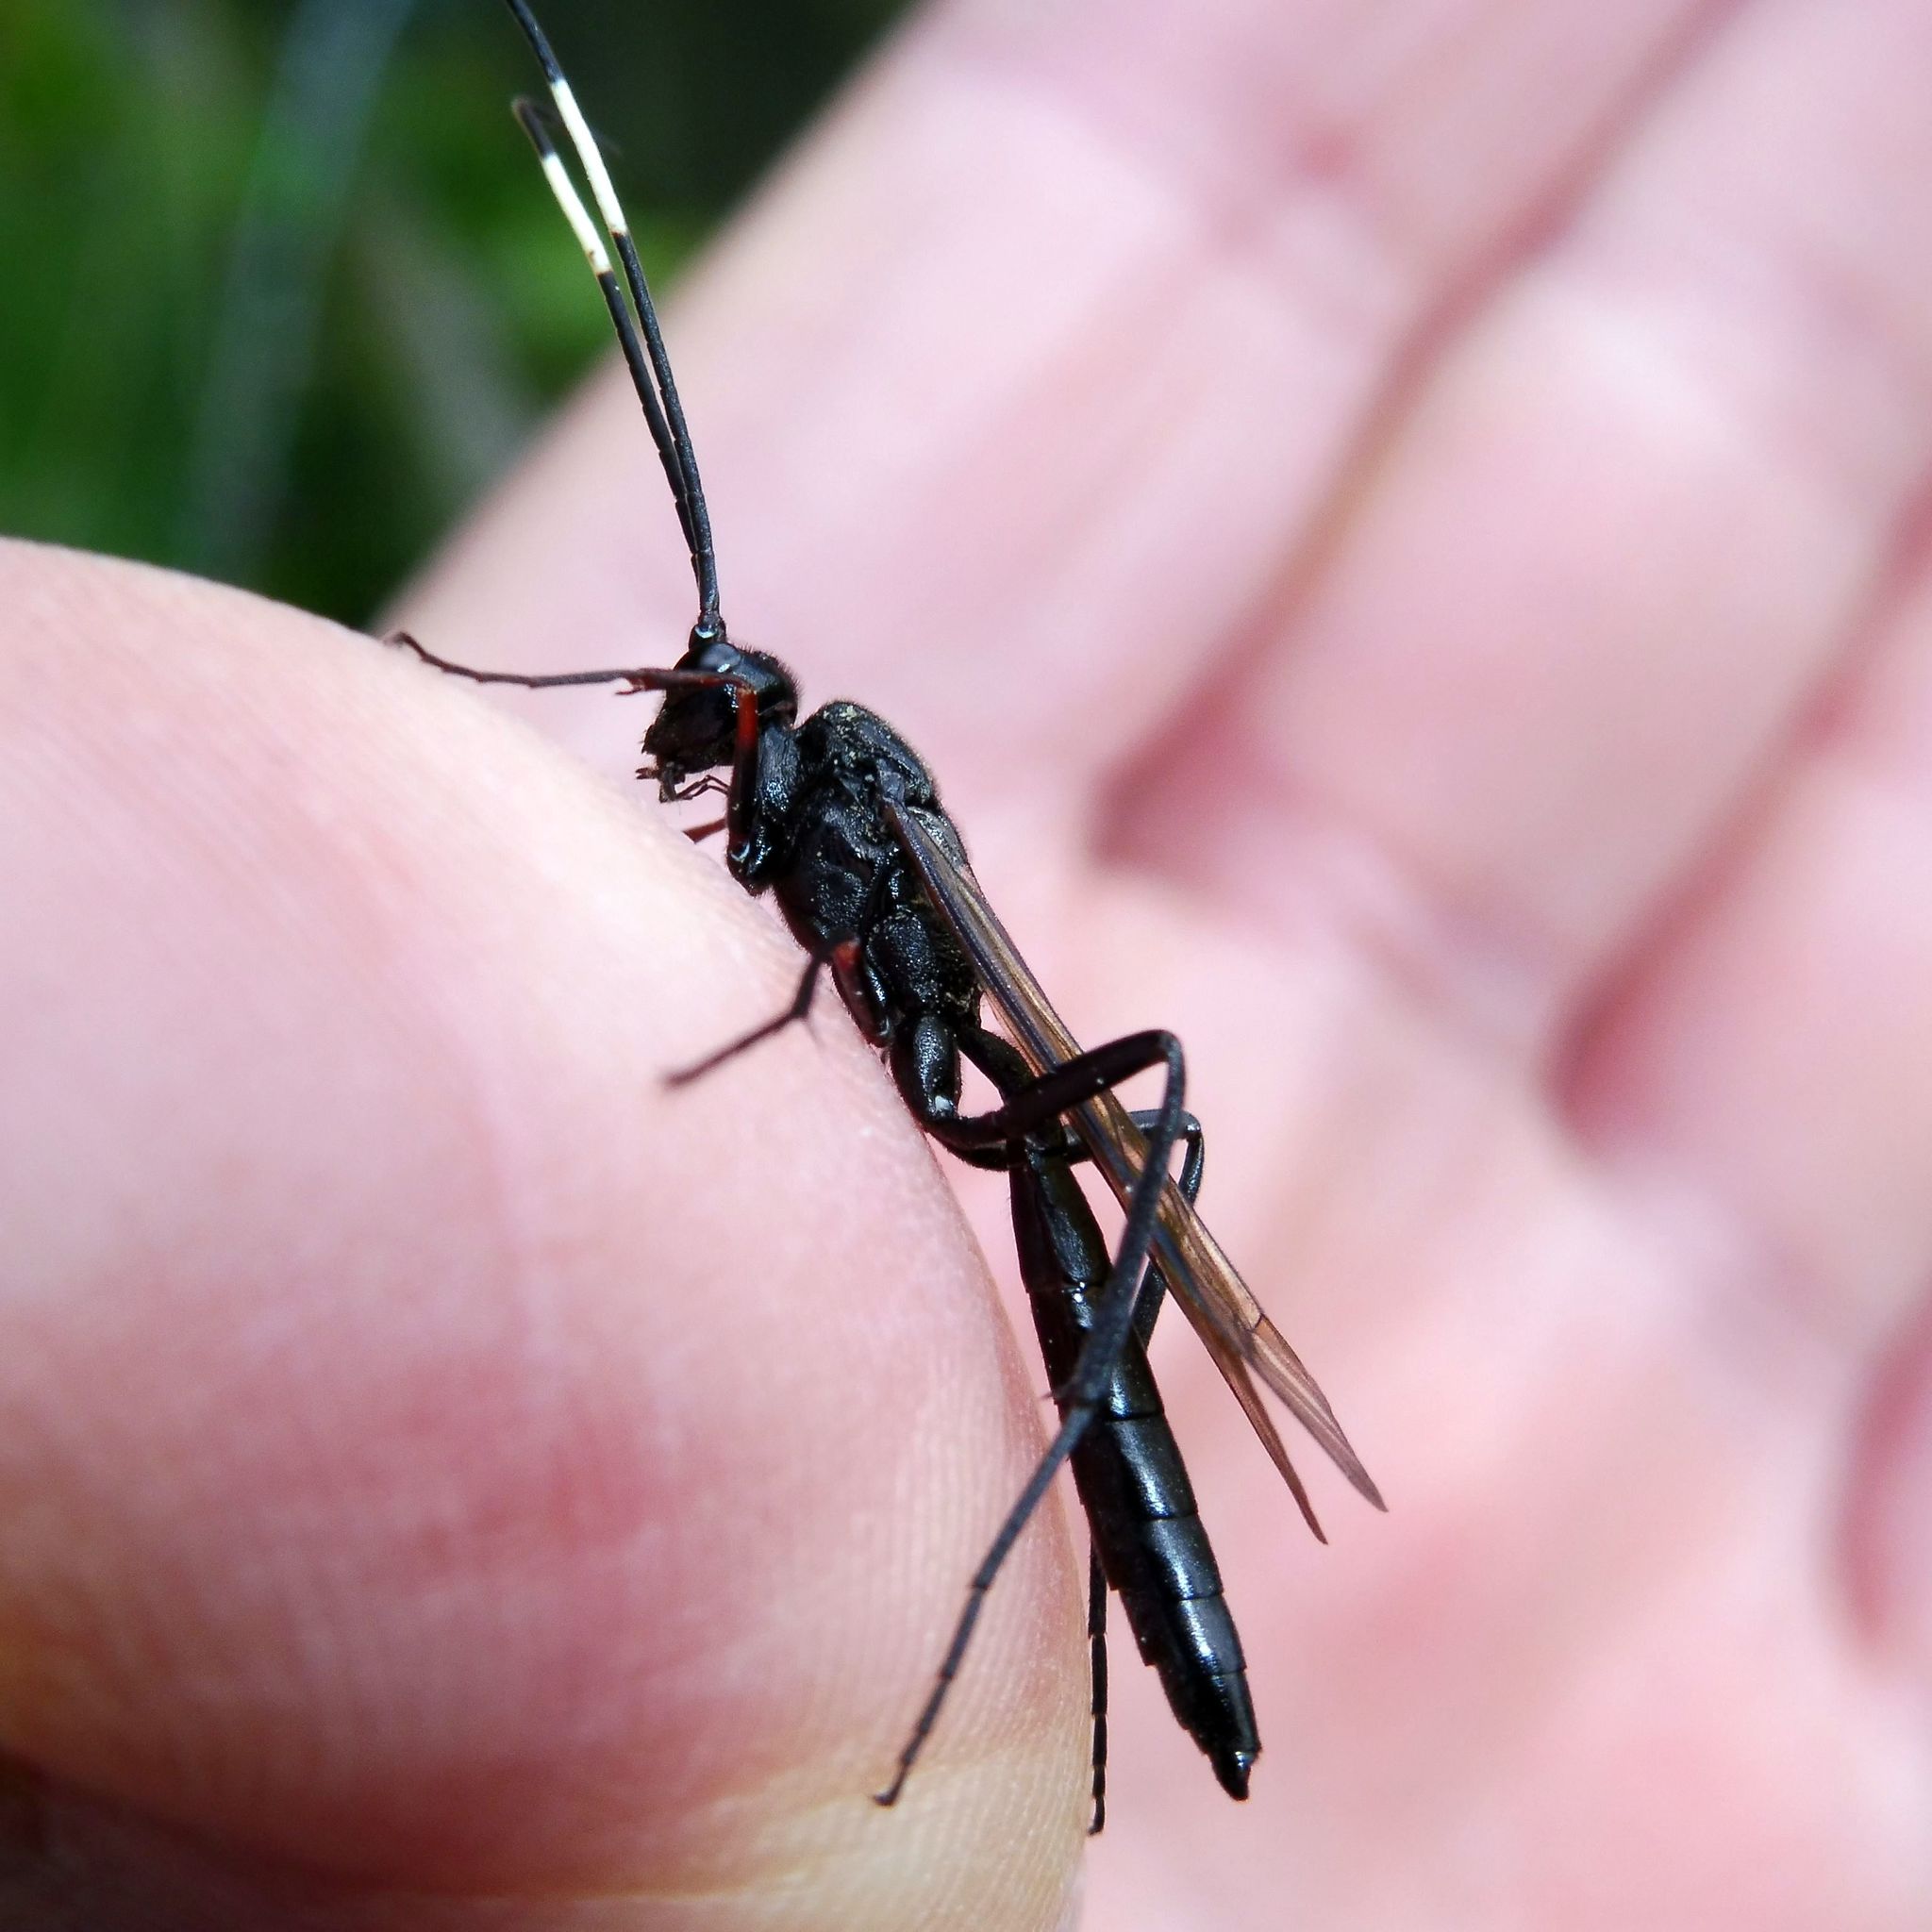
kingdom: Animalia
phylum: Arthropoda
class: Insecta
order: Hymenoptera
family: Ichneumonidae
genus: Echthrus
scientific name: Echthrus reluctator
